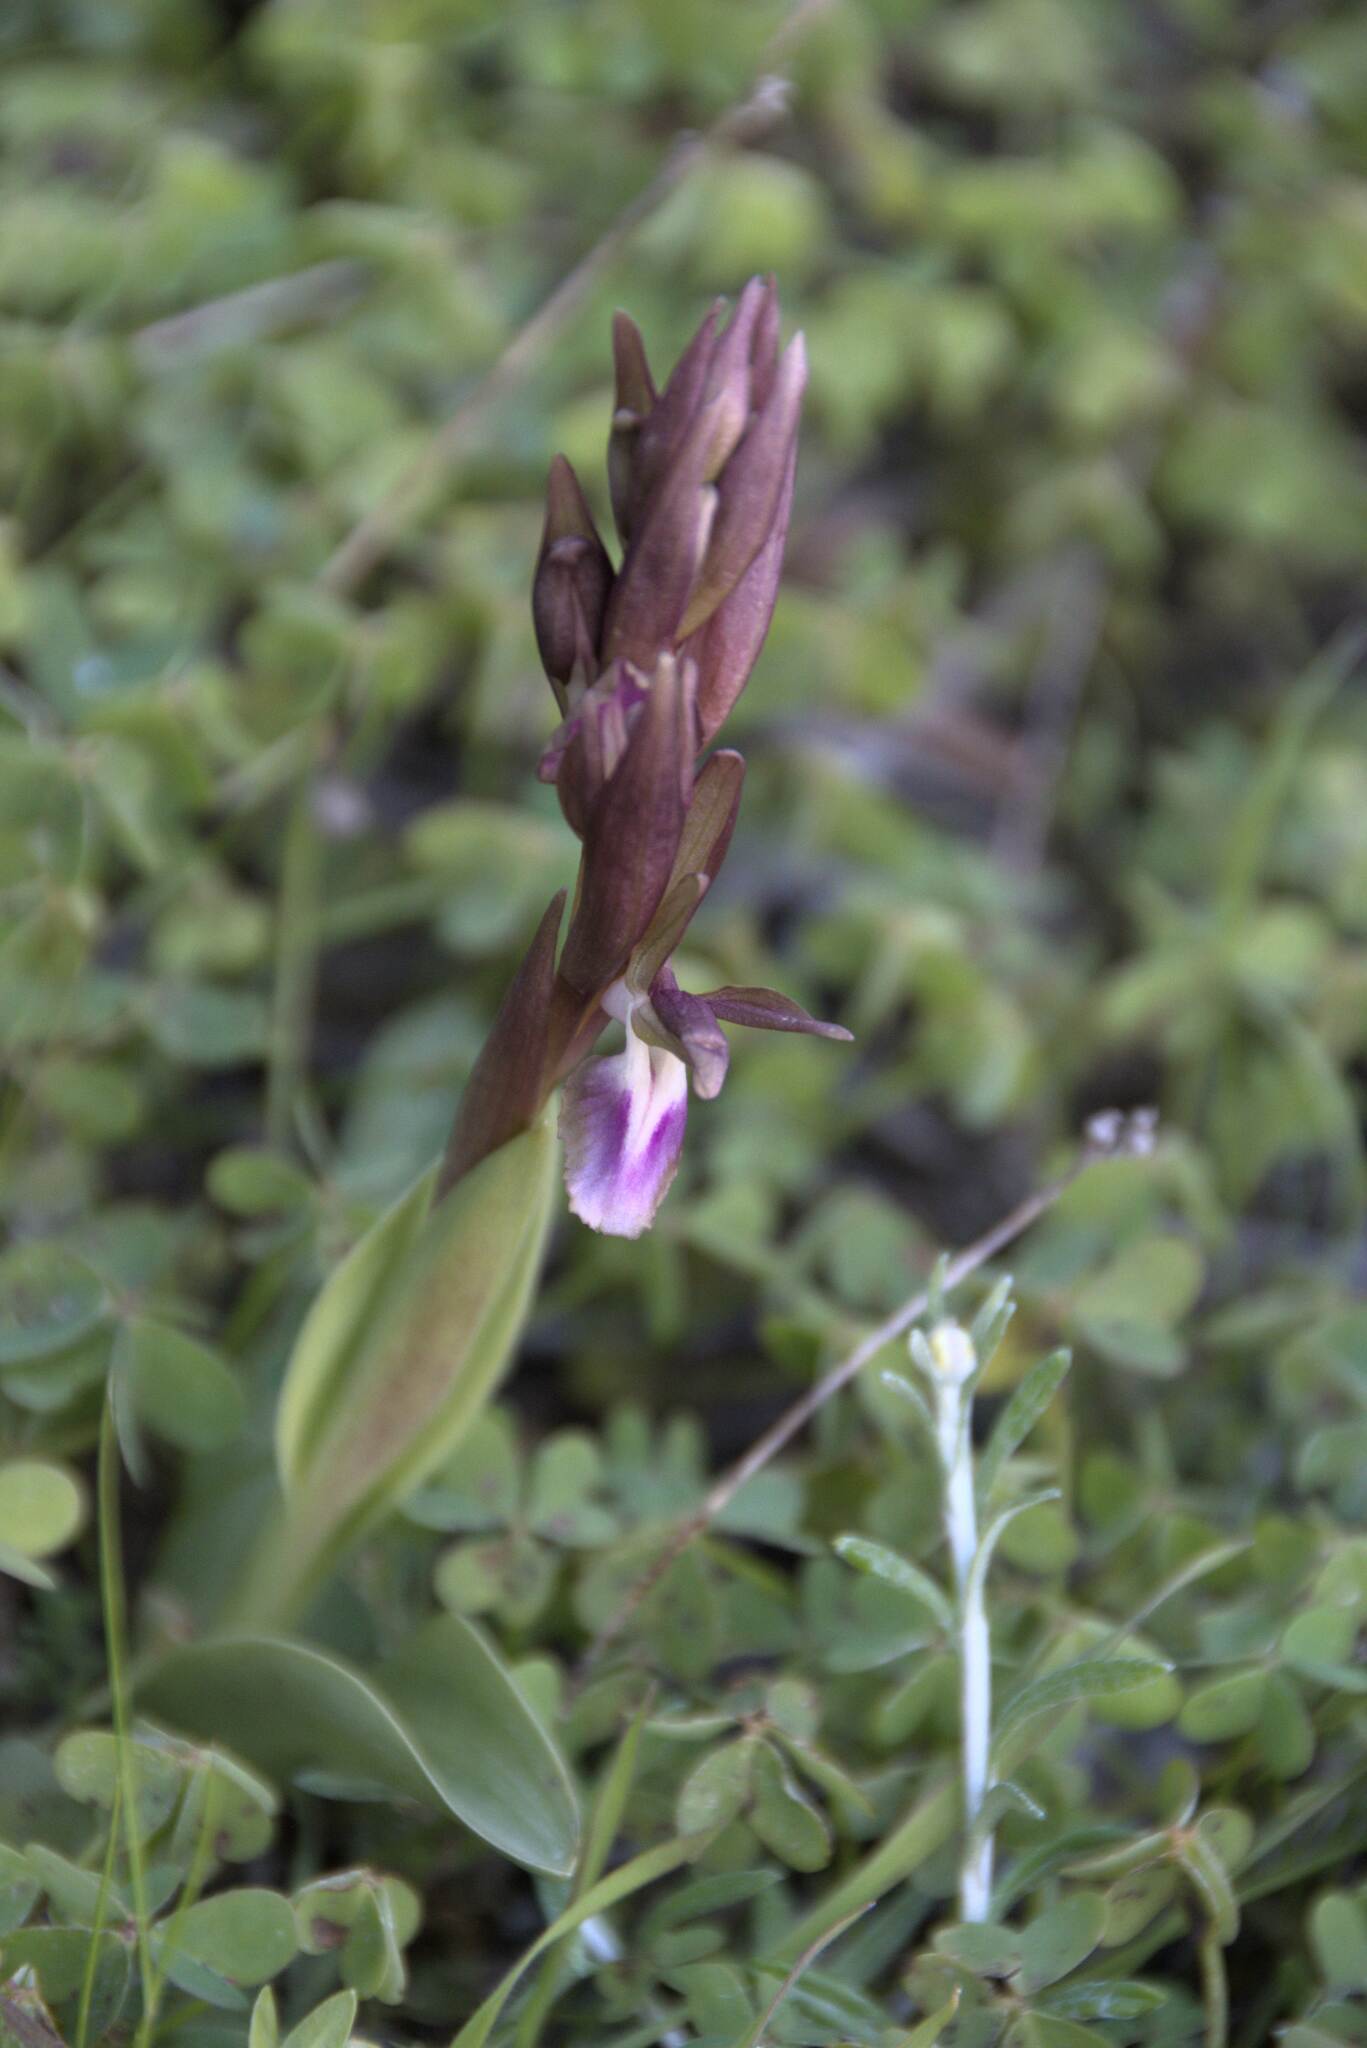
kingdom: Plantae
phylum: Tracheophyta
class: Liliopsida
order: Asparagales
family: Orchidaceae
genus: Anacamptis
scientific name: Anacamptis collina
